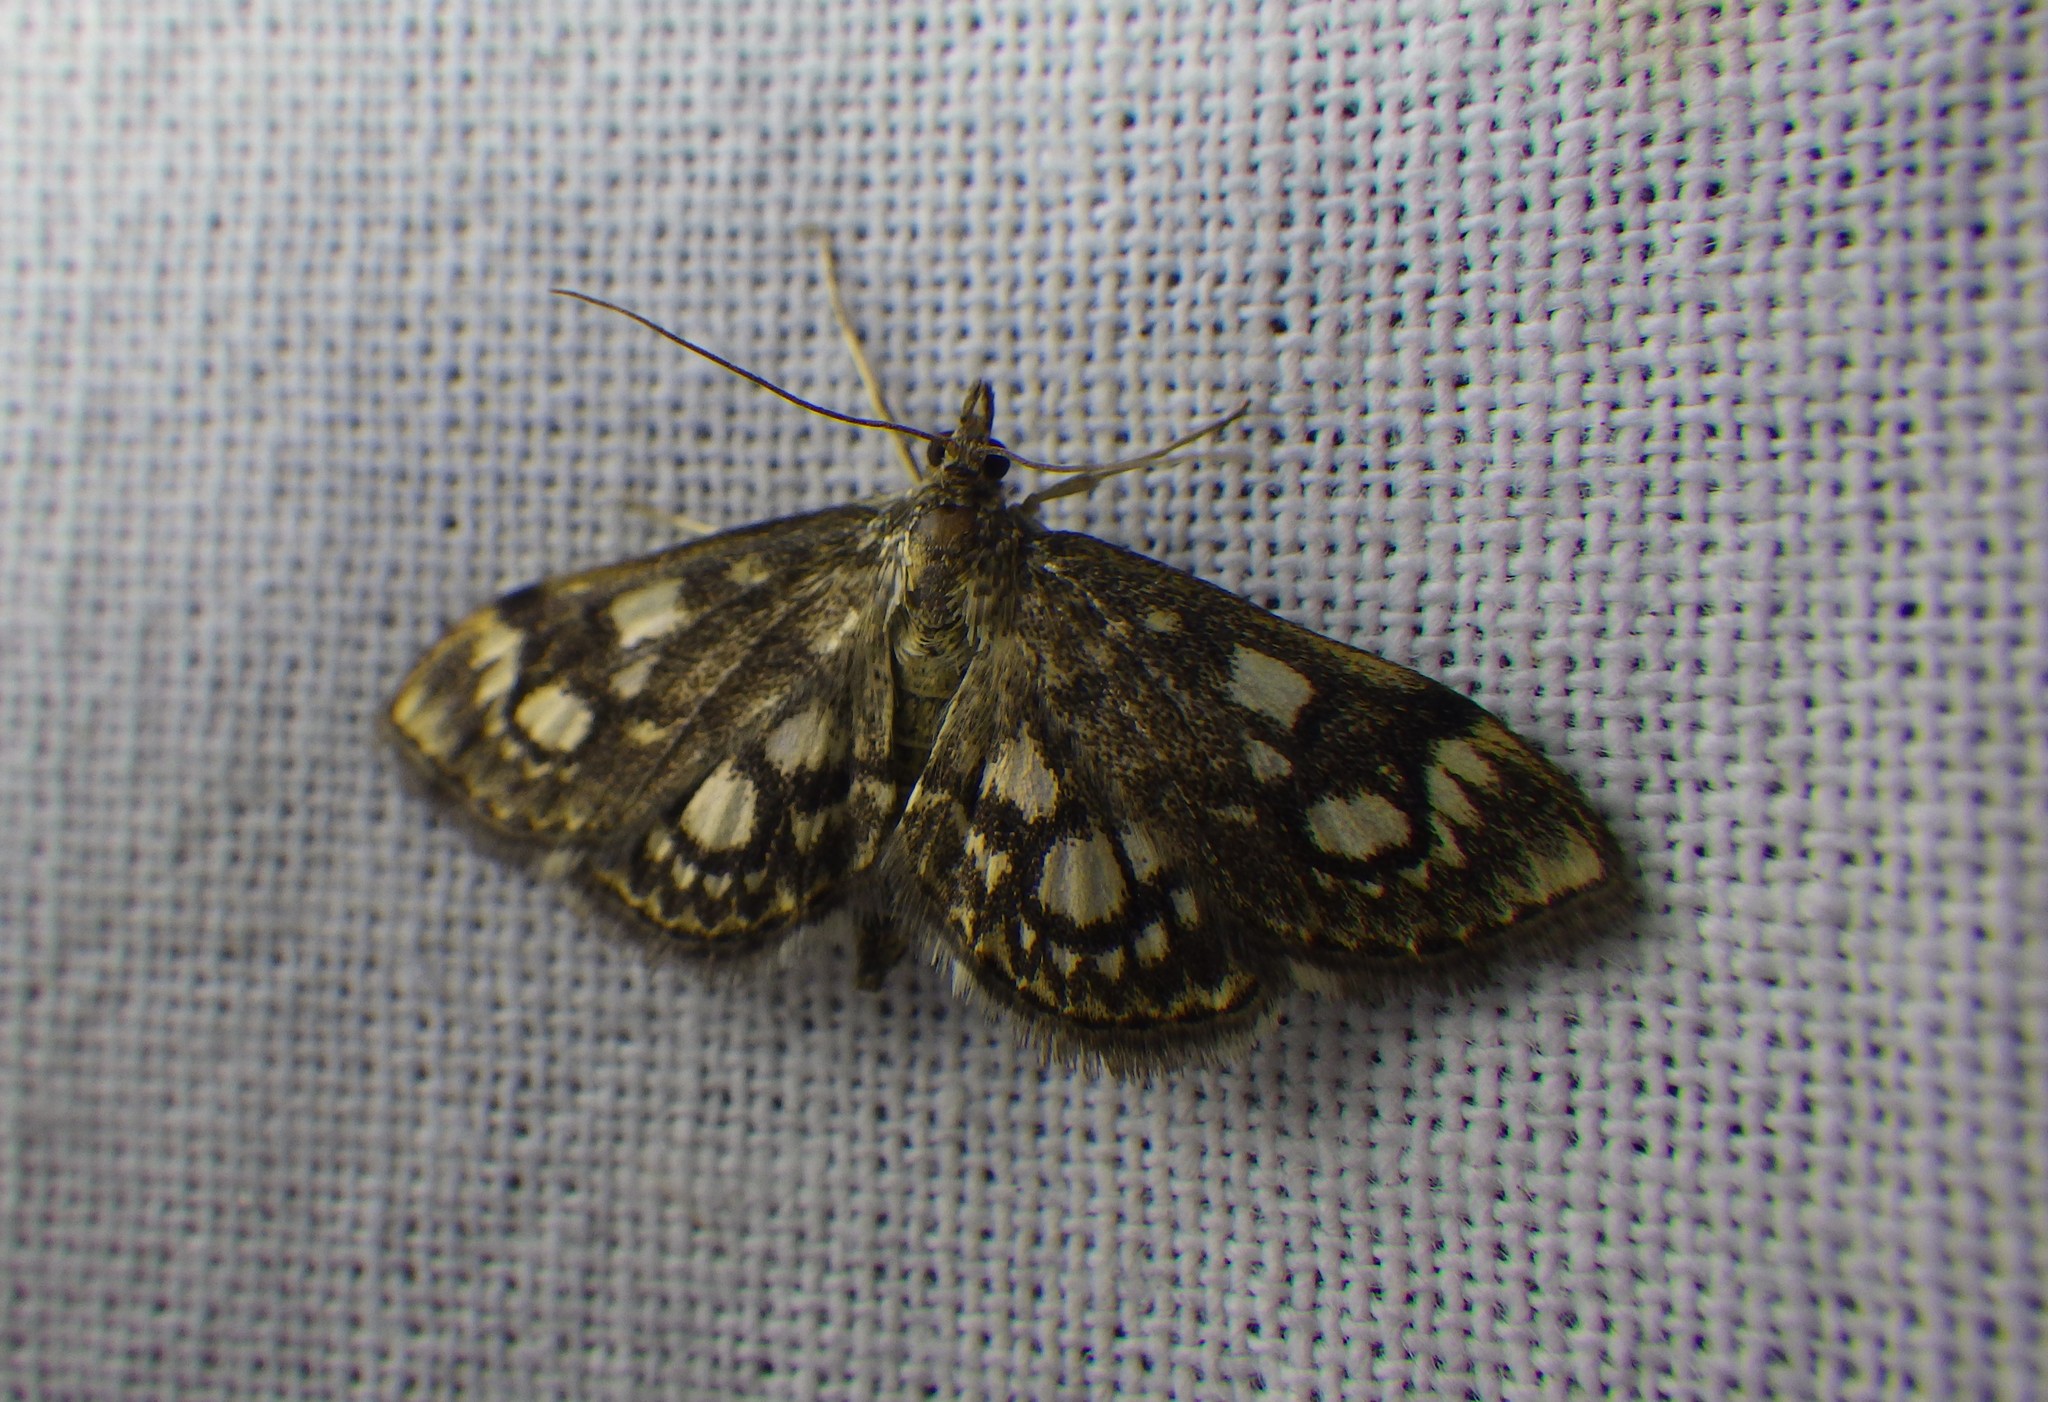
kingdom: Animalia
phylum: Arthropoda
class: Insecta
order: Lepidoptera
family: Crambidae
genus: Anania
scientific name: Anania coronata
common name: Elder pearl
